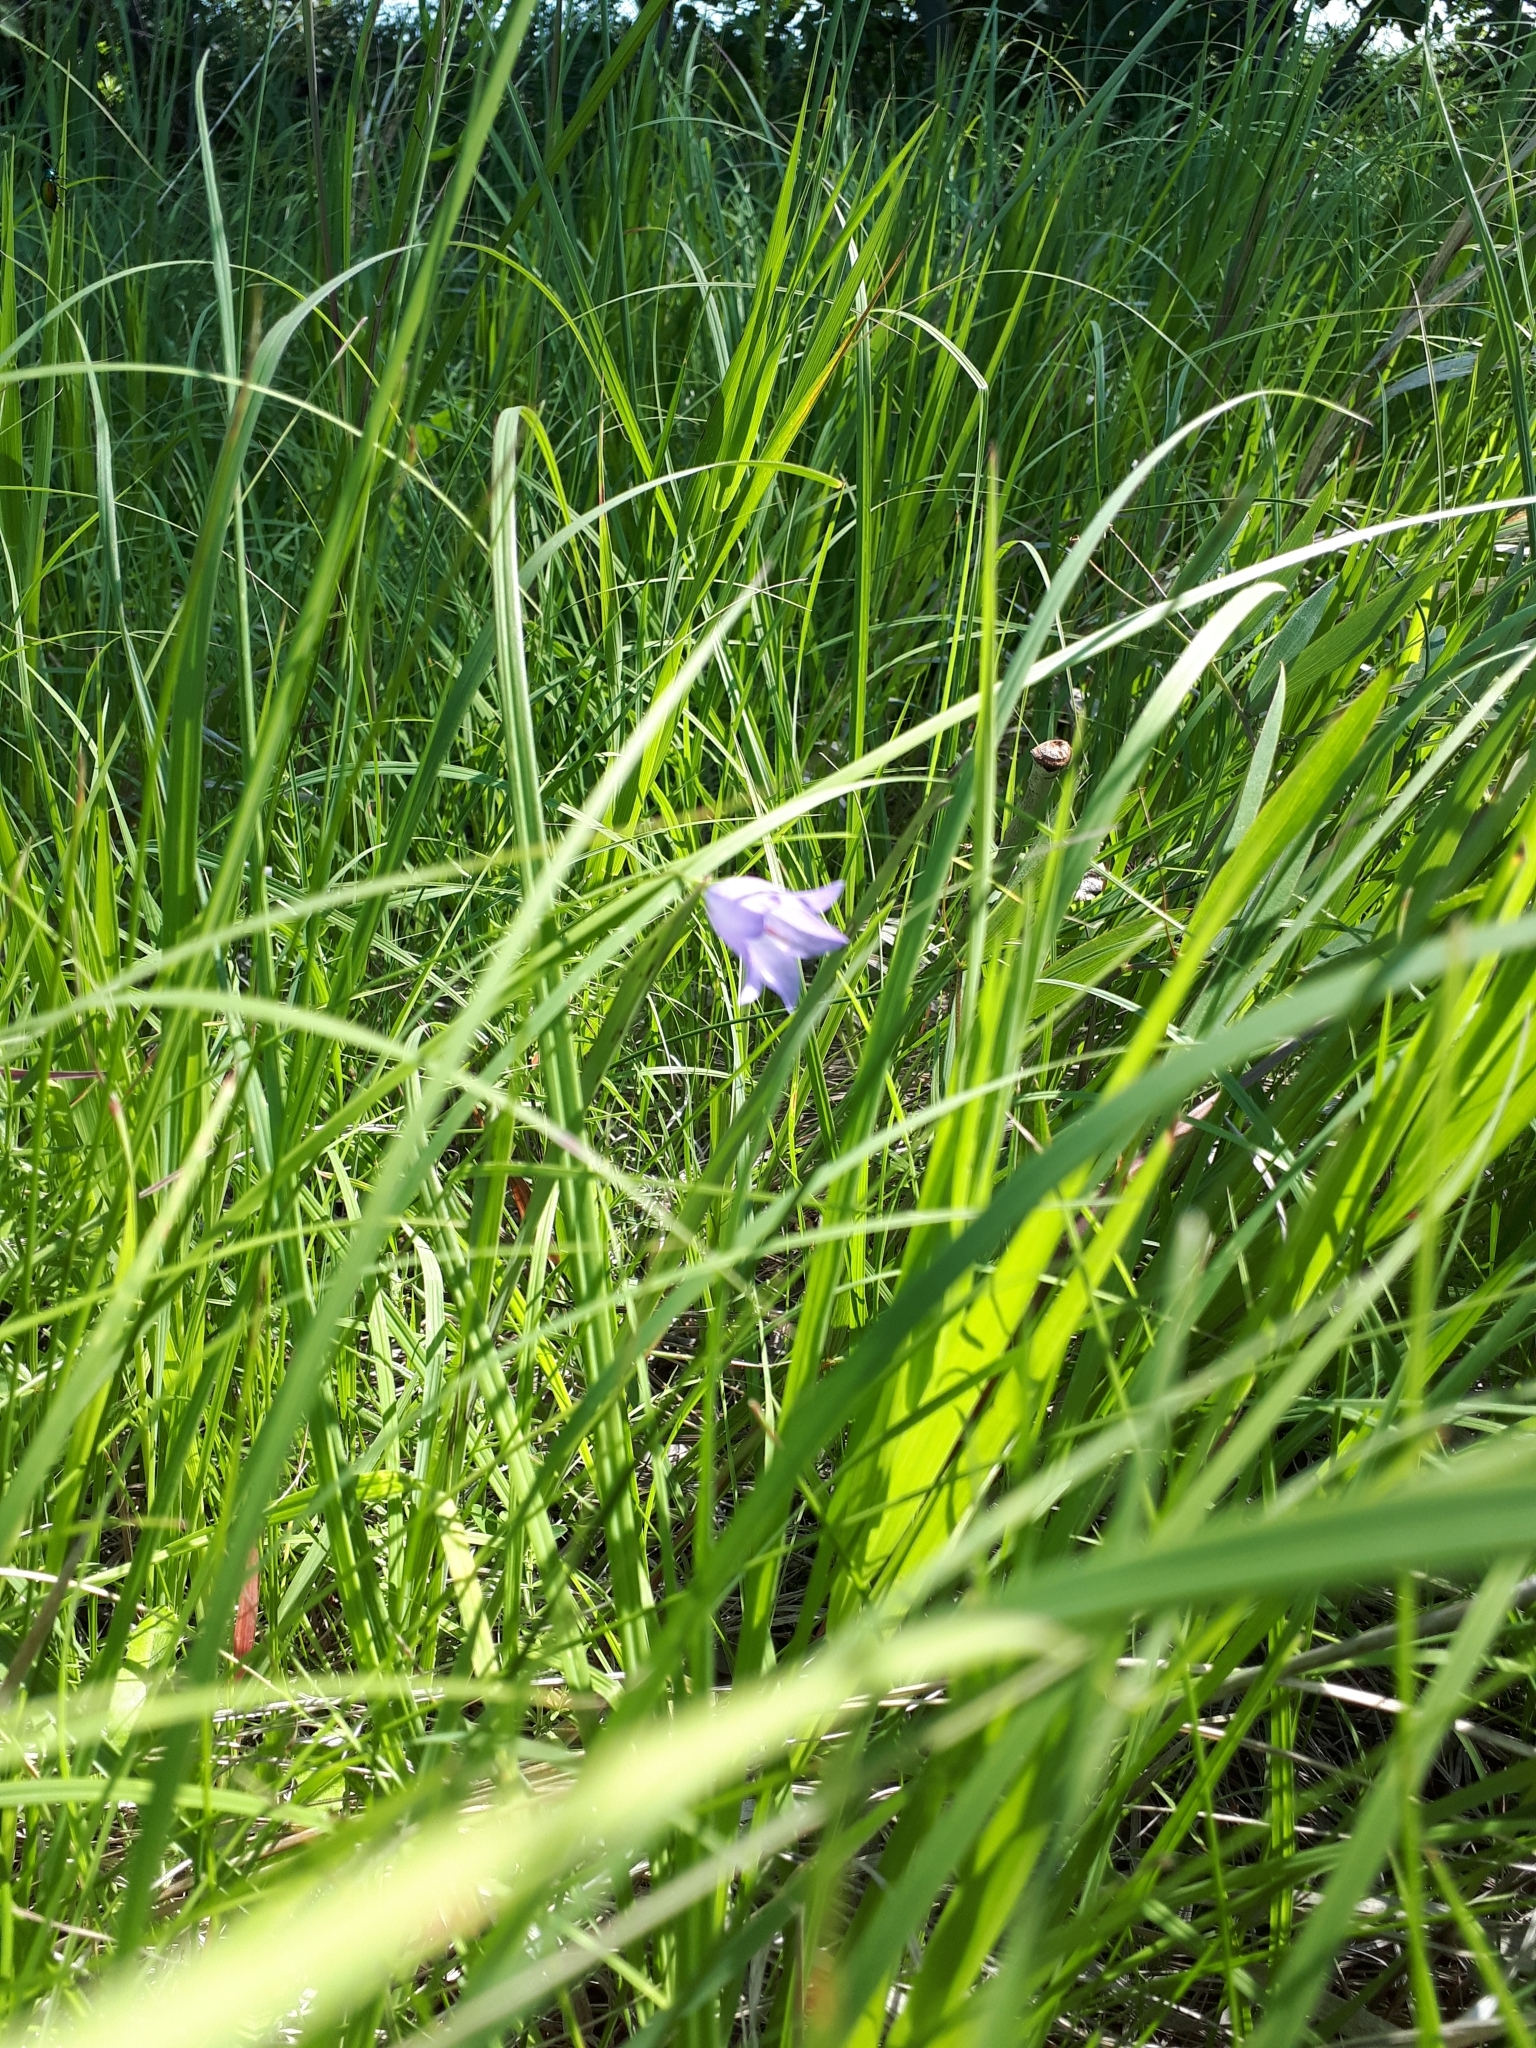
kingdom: Plantae
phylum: Tracheophyta
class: Magnoliopsida
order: Asterales
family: Campanulaceae
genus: Campanula
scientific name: Campanula petiolata
